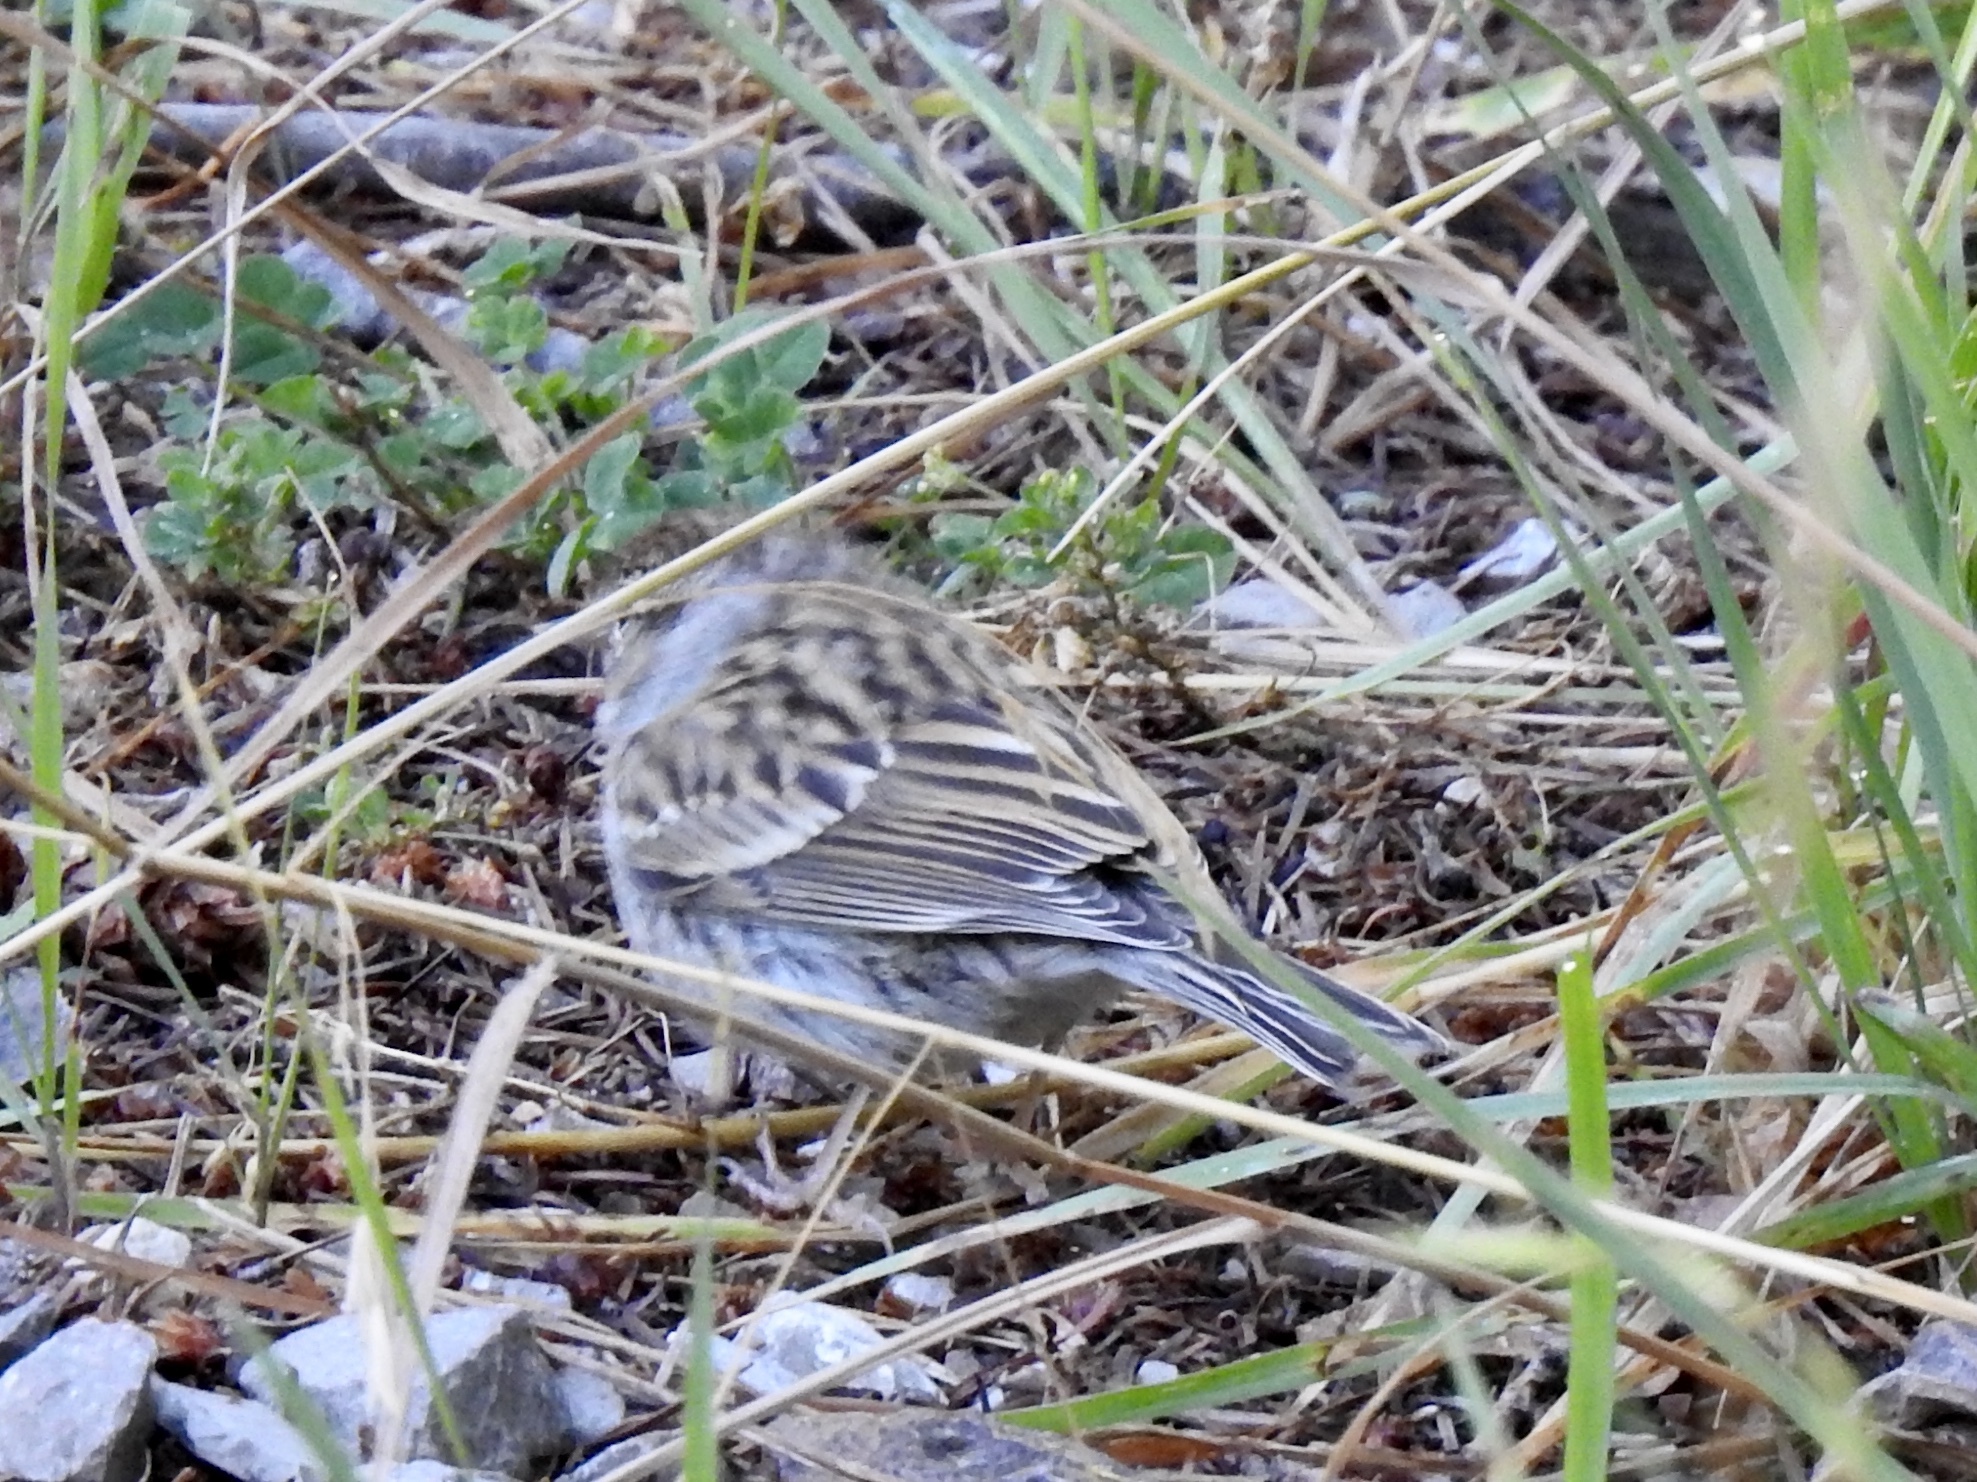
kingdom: Animalia
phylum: Chordata
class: Aves
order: Passeriformes
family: Passerellidae
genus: Spizella
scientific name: Spizella passerina
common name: Chipping sparrow
